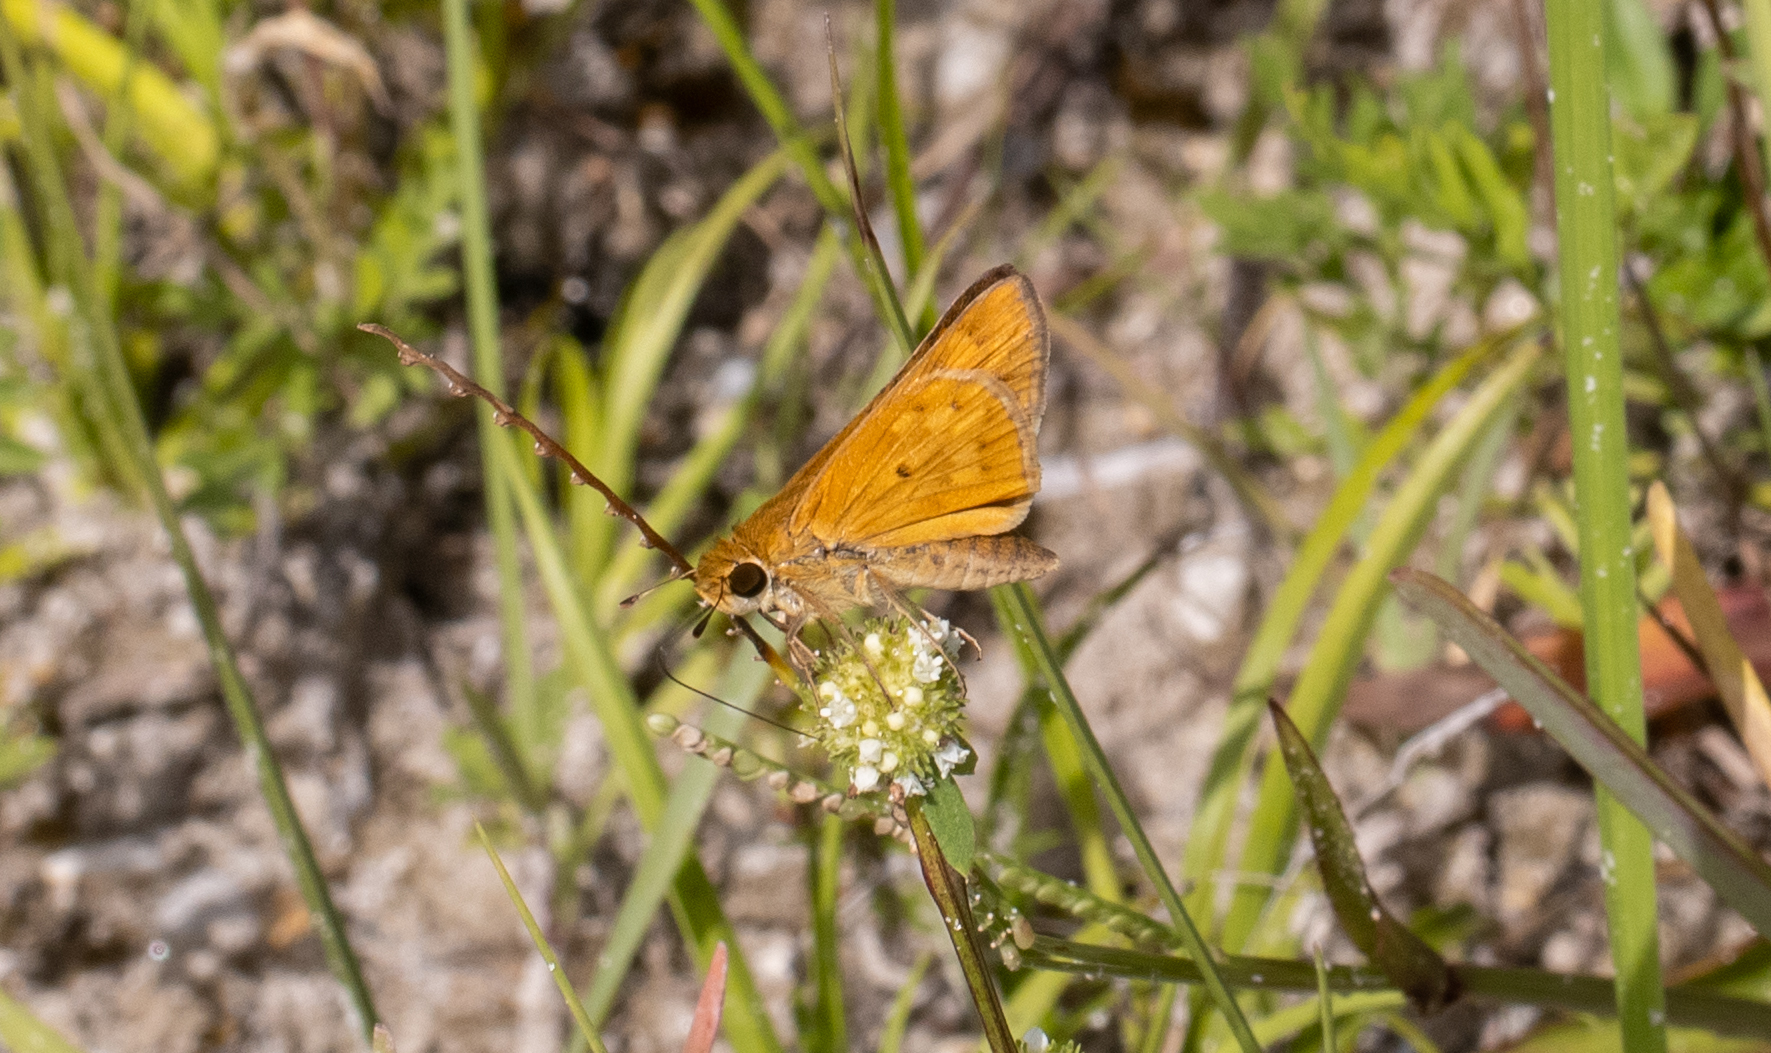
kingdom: Animalia
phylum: Arthropoda
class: Insecta
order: Lepidoptera
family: Hesperiidae
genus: Hylephila
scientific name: Hylephila phyleus
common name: Fiery skipper
